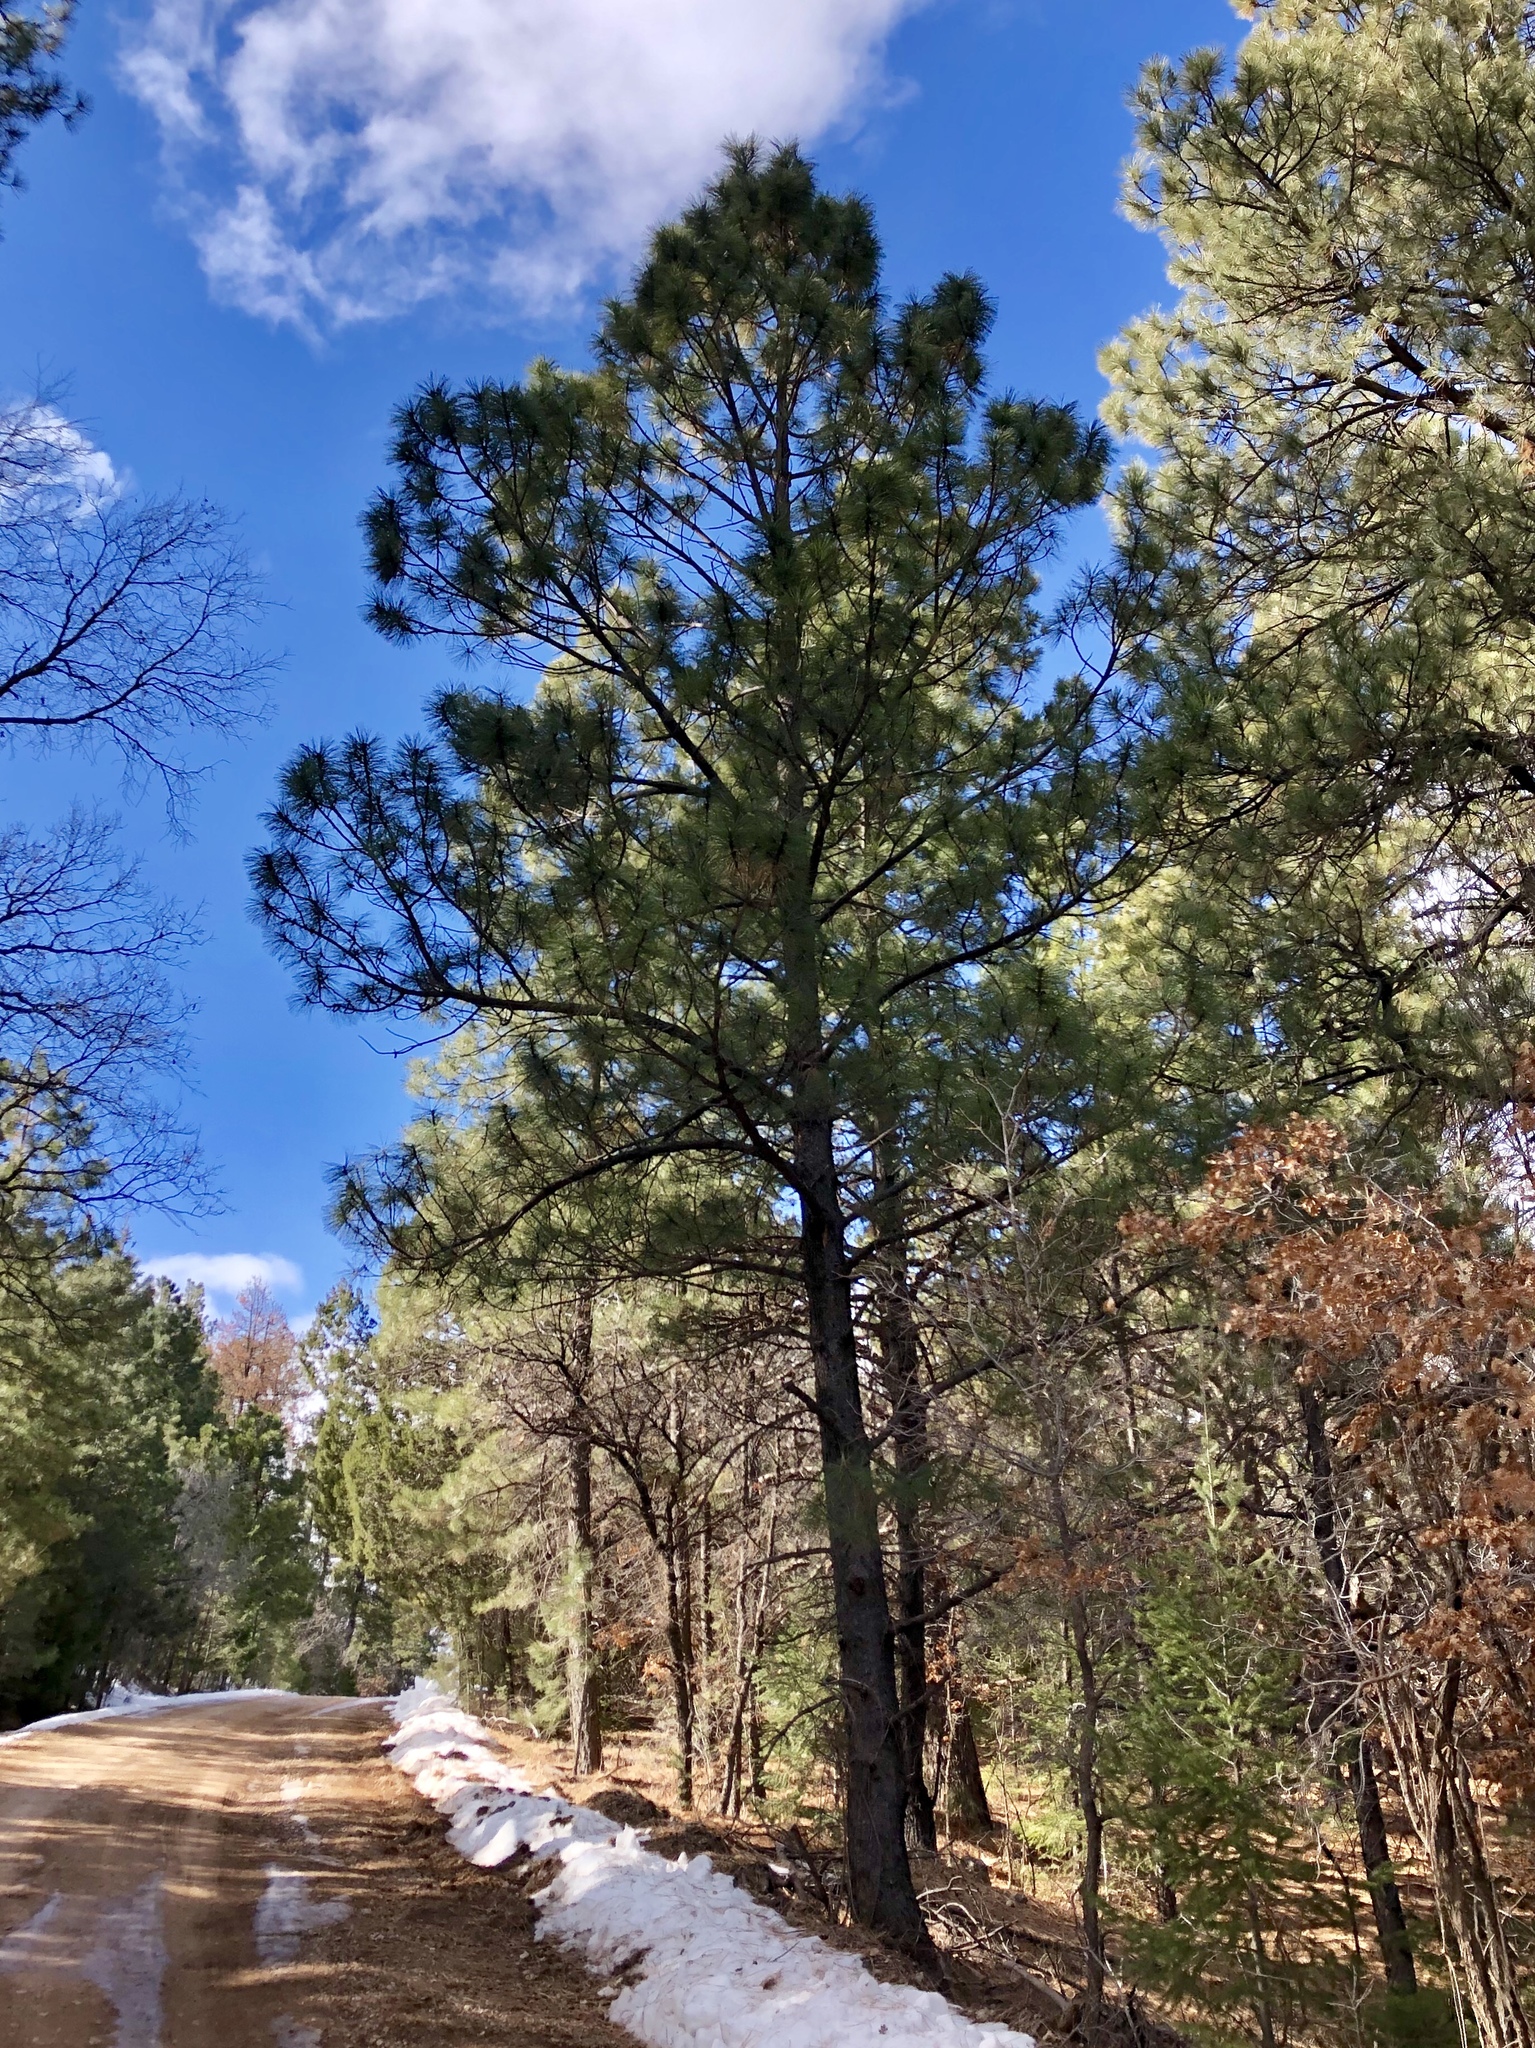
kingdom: Plantae
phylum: Tracheophyta
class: Pinopsida
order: Pinales
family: Pinaceae
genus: Pinus
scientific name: Pinus ponderosa
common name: Western yellow-pine
